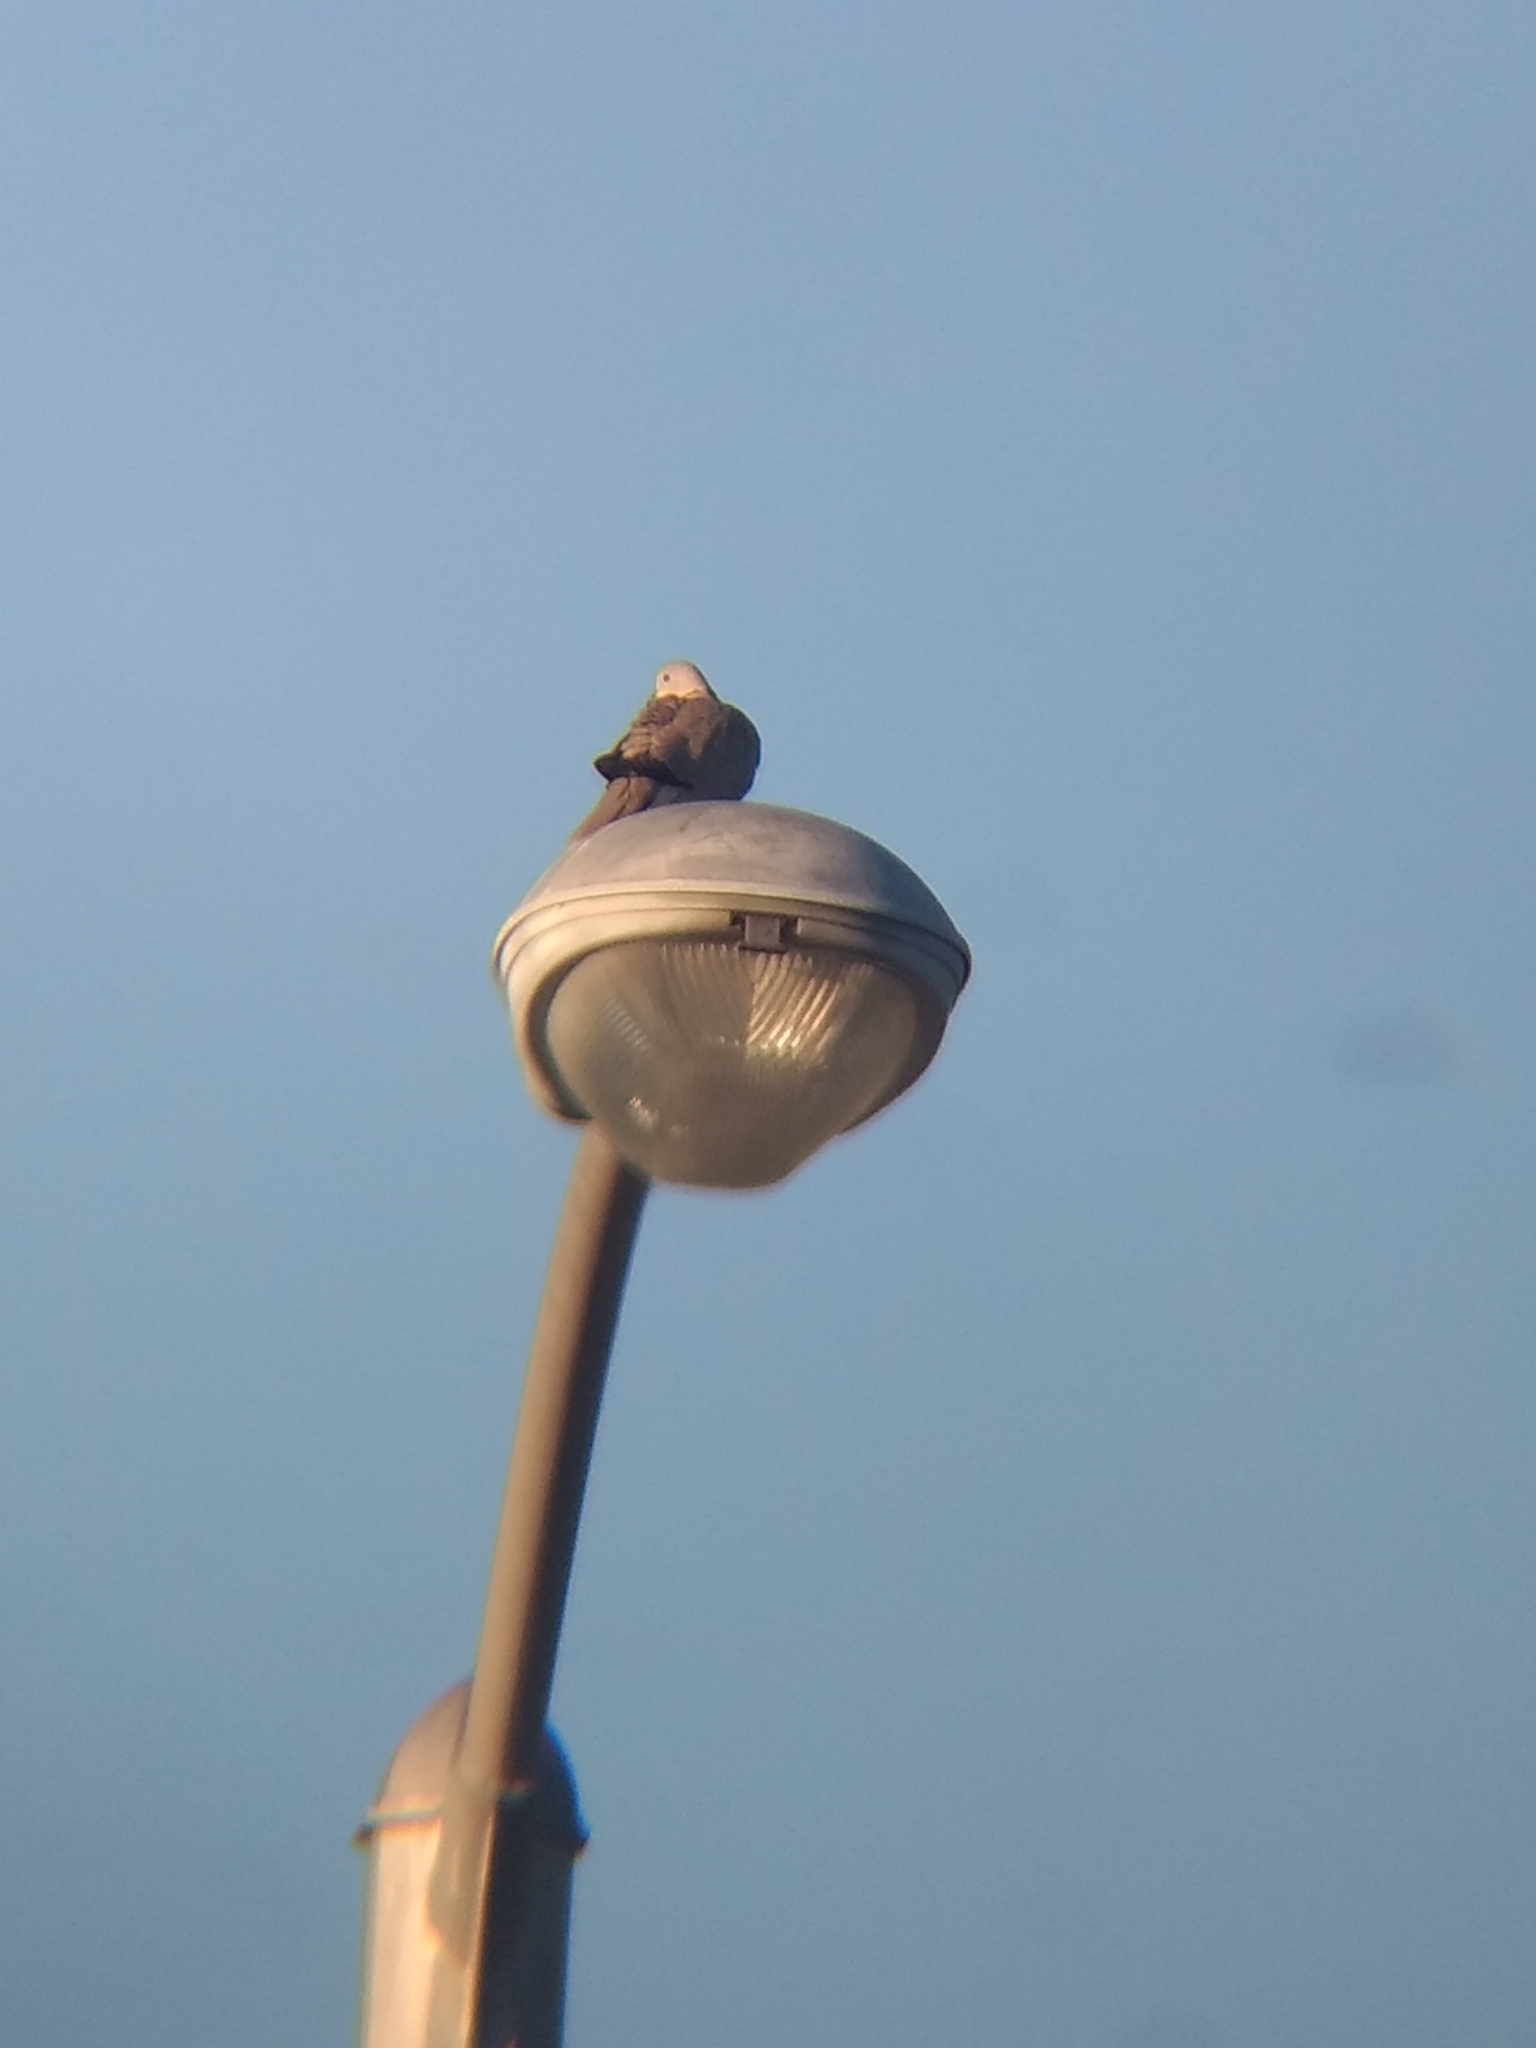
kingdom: Animalia
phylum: Chordata
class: Aves
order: Columbiformes
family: Columbidae
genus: Streptopelia
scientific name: Streptopelia decaocto
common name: Eurasian collared dove
